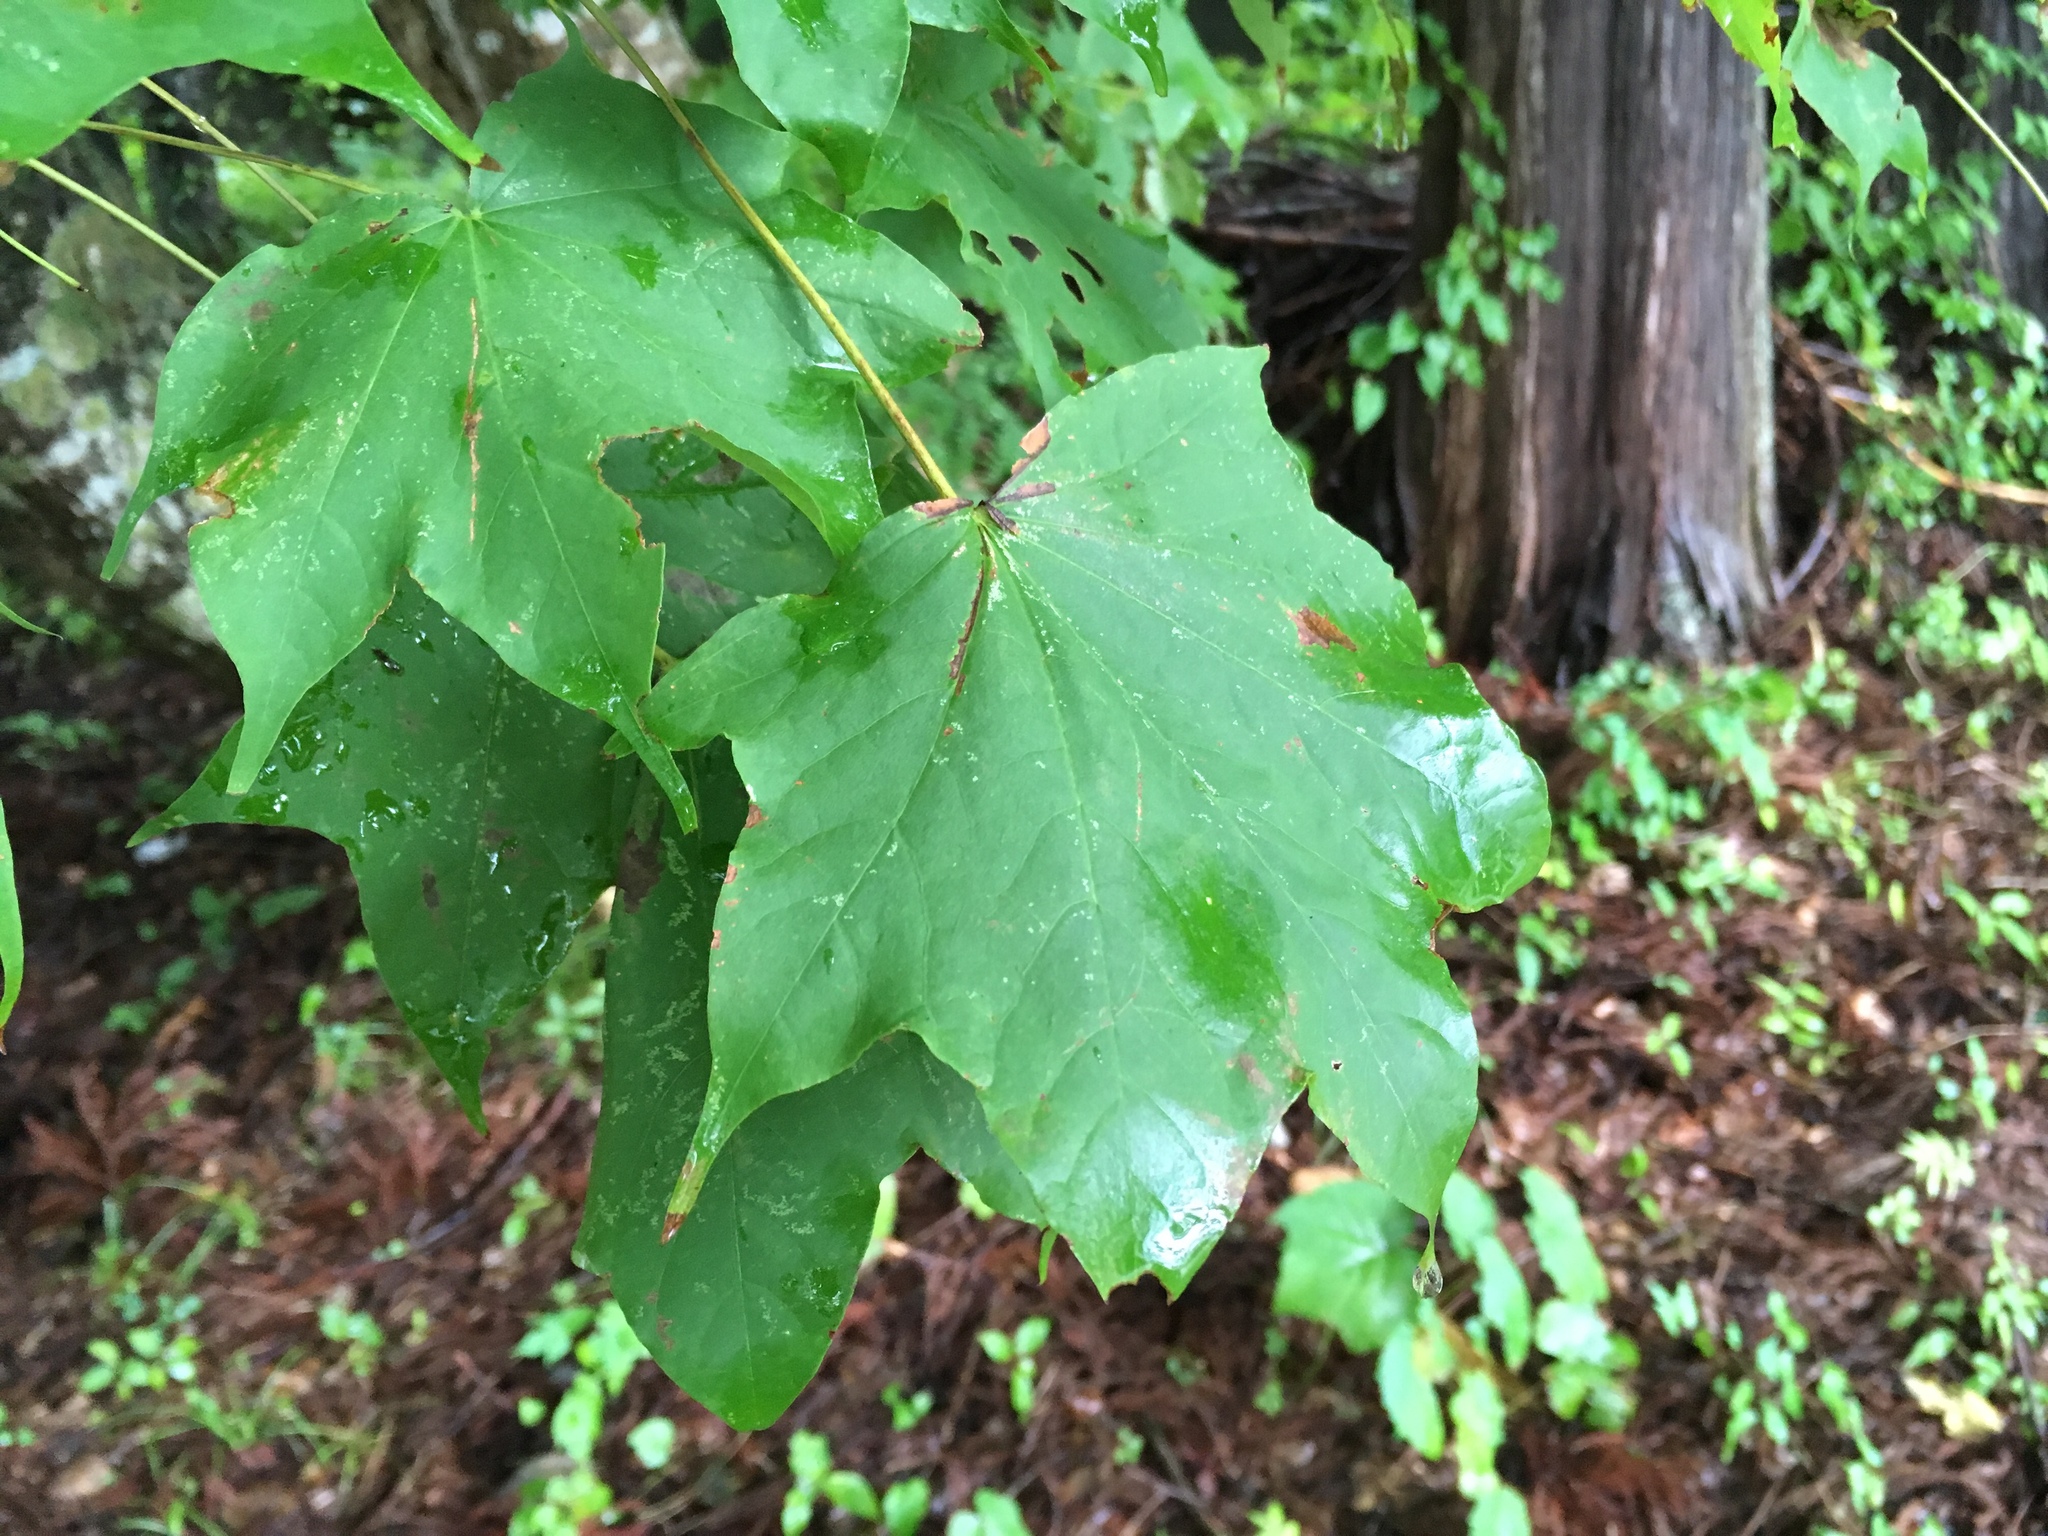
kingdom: Plantae
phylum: Tracheophyta
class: Magnoliopsida
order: Sapindales
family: Sapindaceae
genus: Acer
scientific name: Acer pictum
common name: The painted maple
